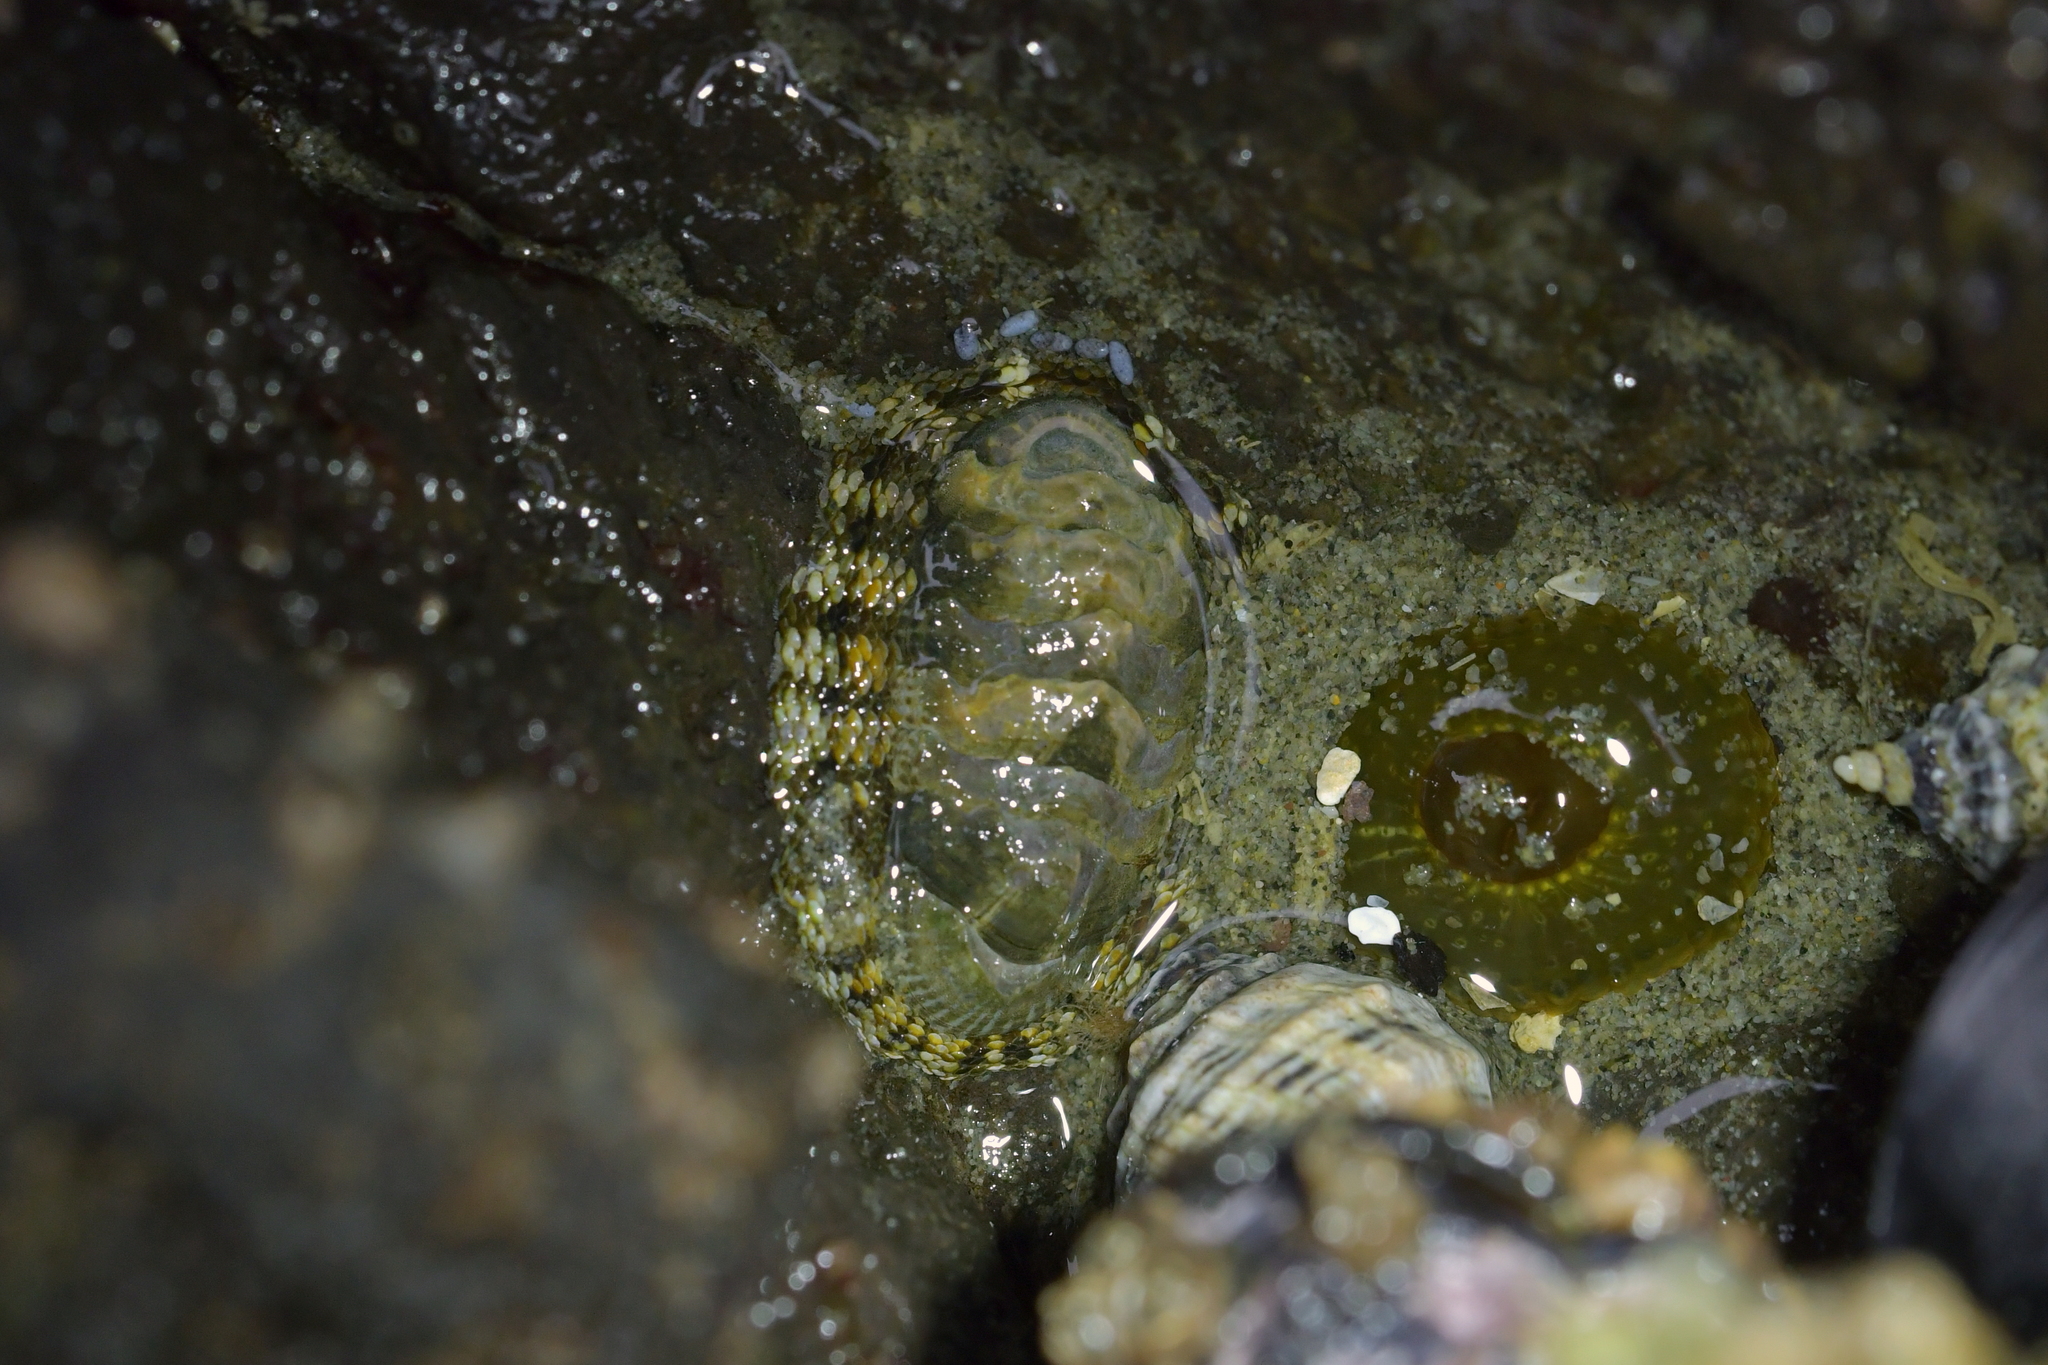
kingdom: Animalia
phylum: Mollusca
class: Polyplacophora
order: Chitonida
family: Chitonidae
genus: Sypharochiton
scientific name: Sypharochiton pelliserpentis
